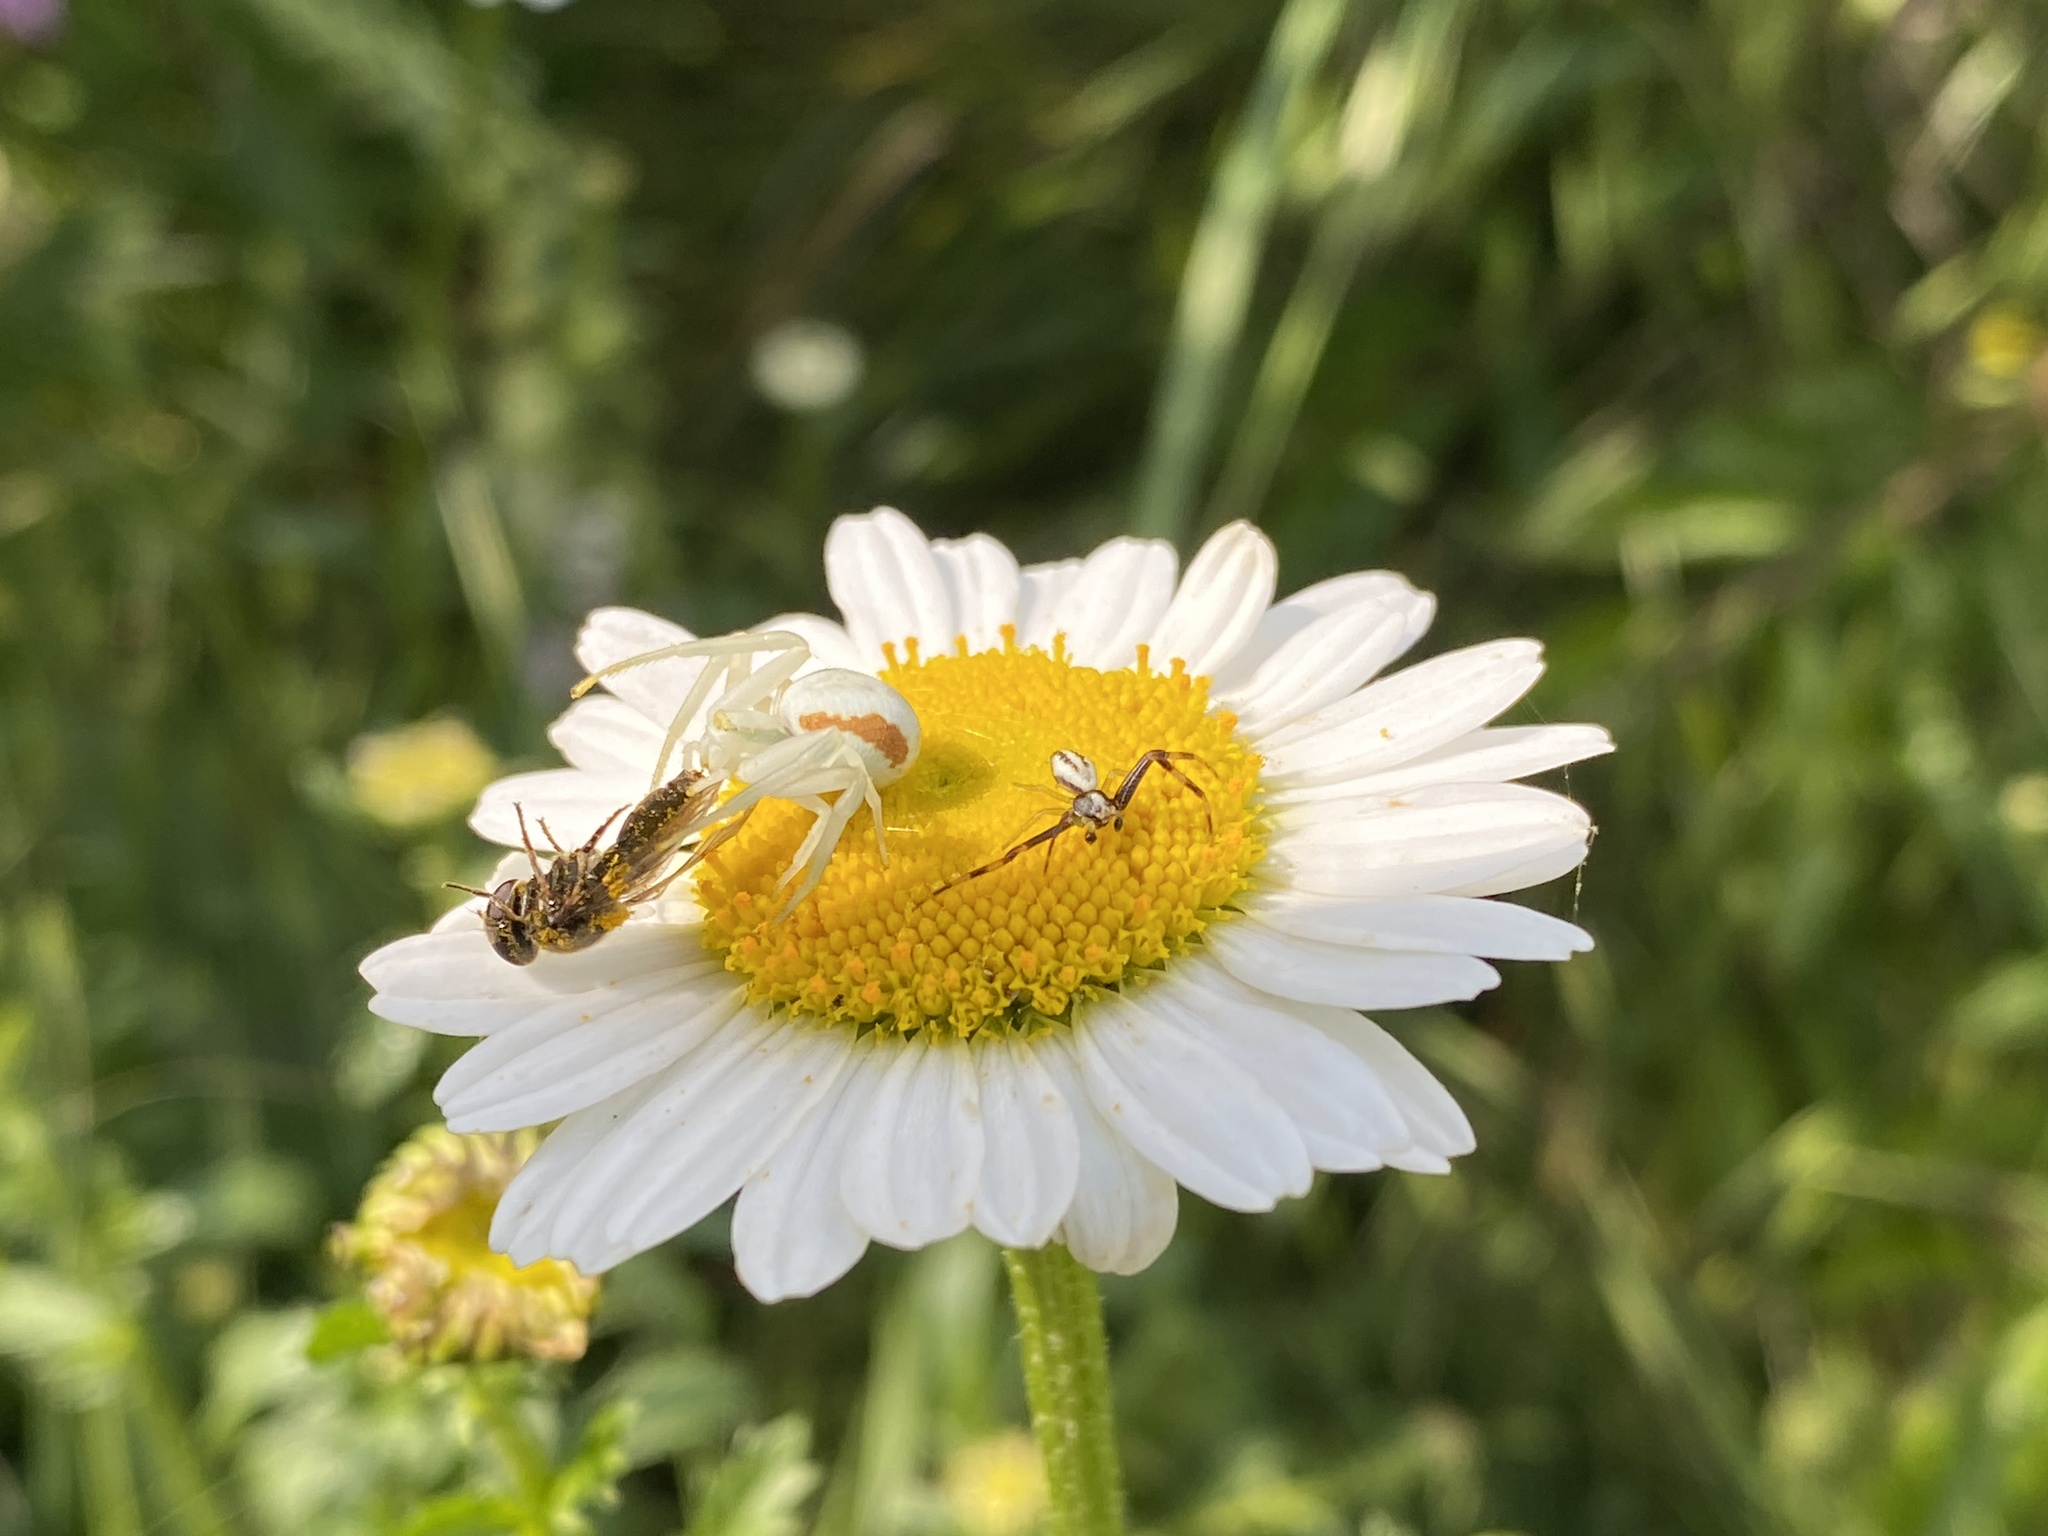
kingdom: Animalia
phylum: Arthropoda
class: Arachnida
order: Araneae
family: Thomisidae
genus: Misumena
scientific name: Misumena vatia
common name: Goldenrod crab spider
